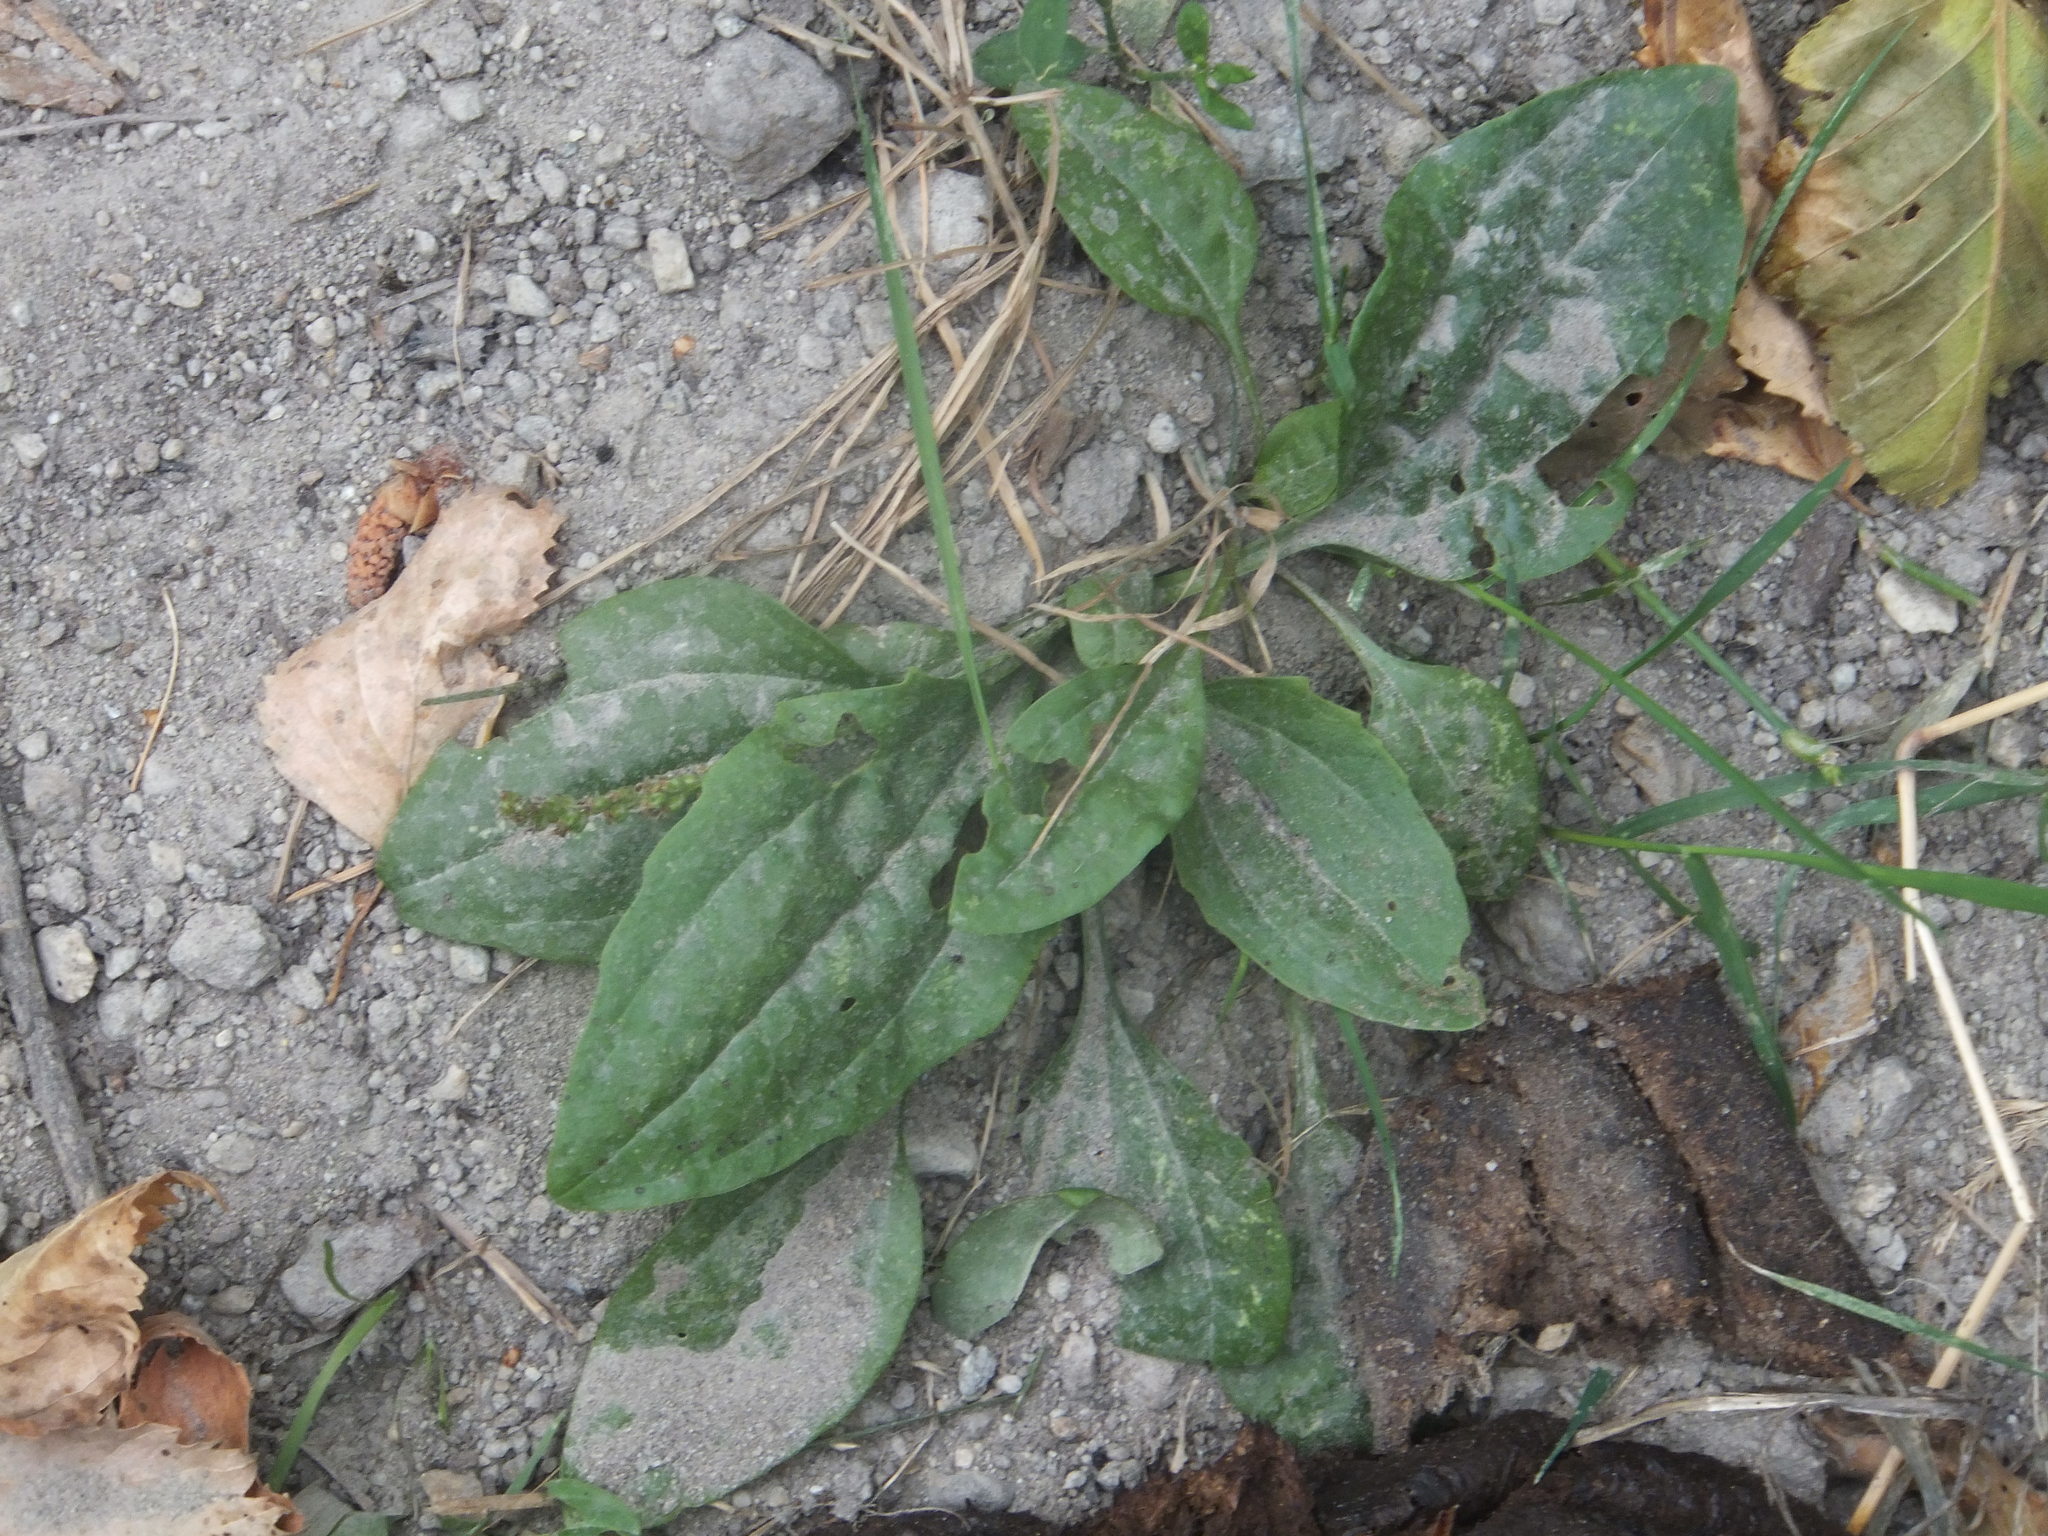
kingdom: Plantae
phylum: Tracheophyta
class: Magnoliopsida
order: Lamiales
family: Plantaginaceae
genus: Plantago
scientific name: Plantago major
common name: Common plantain
